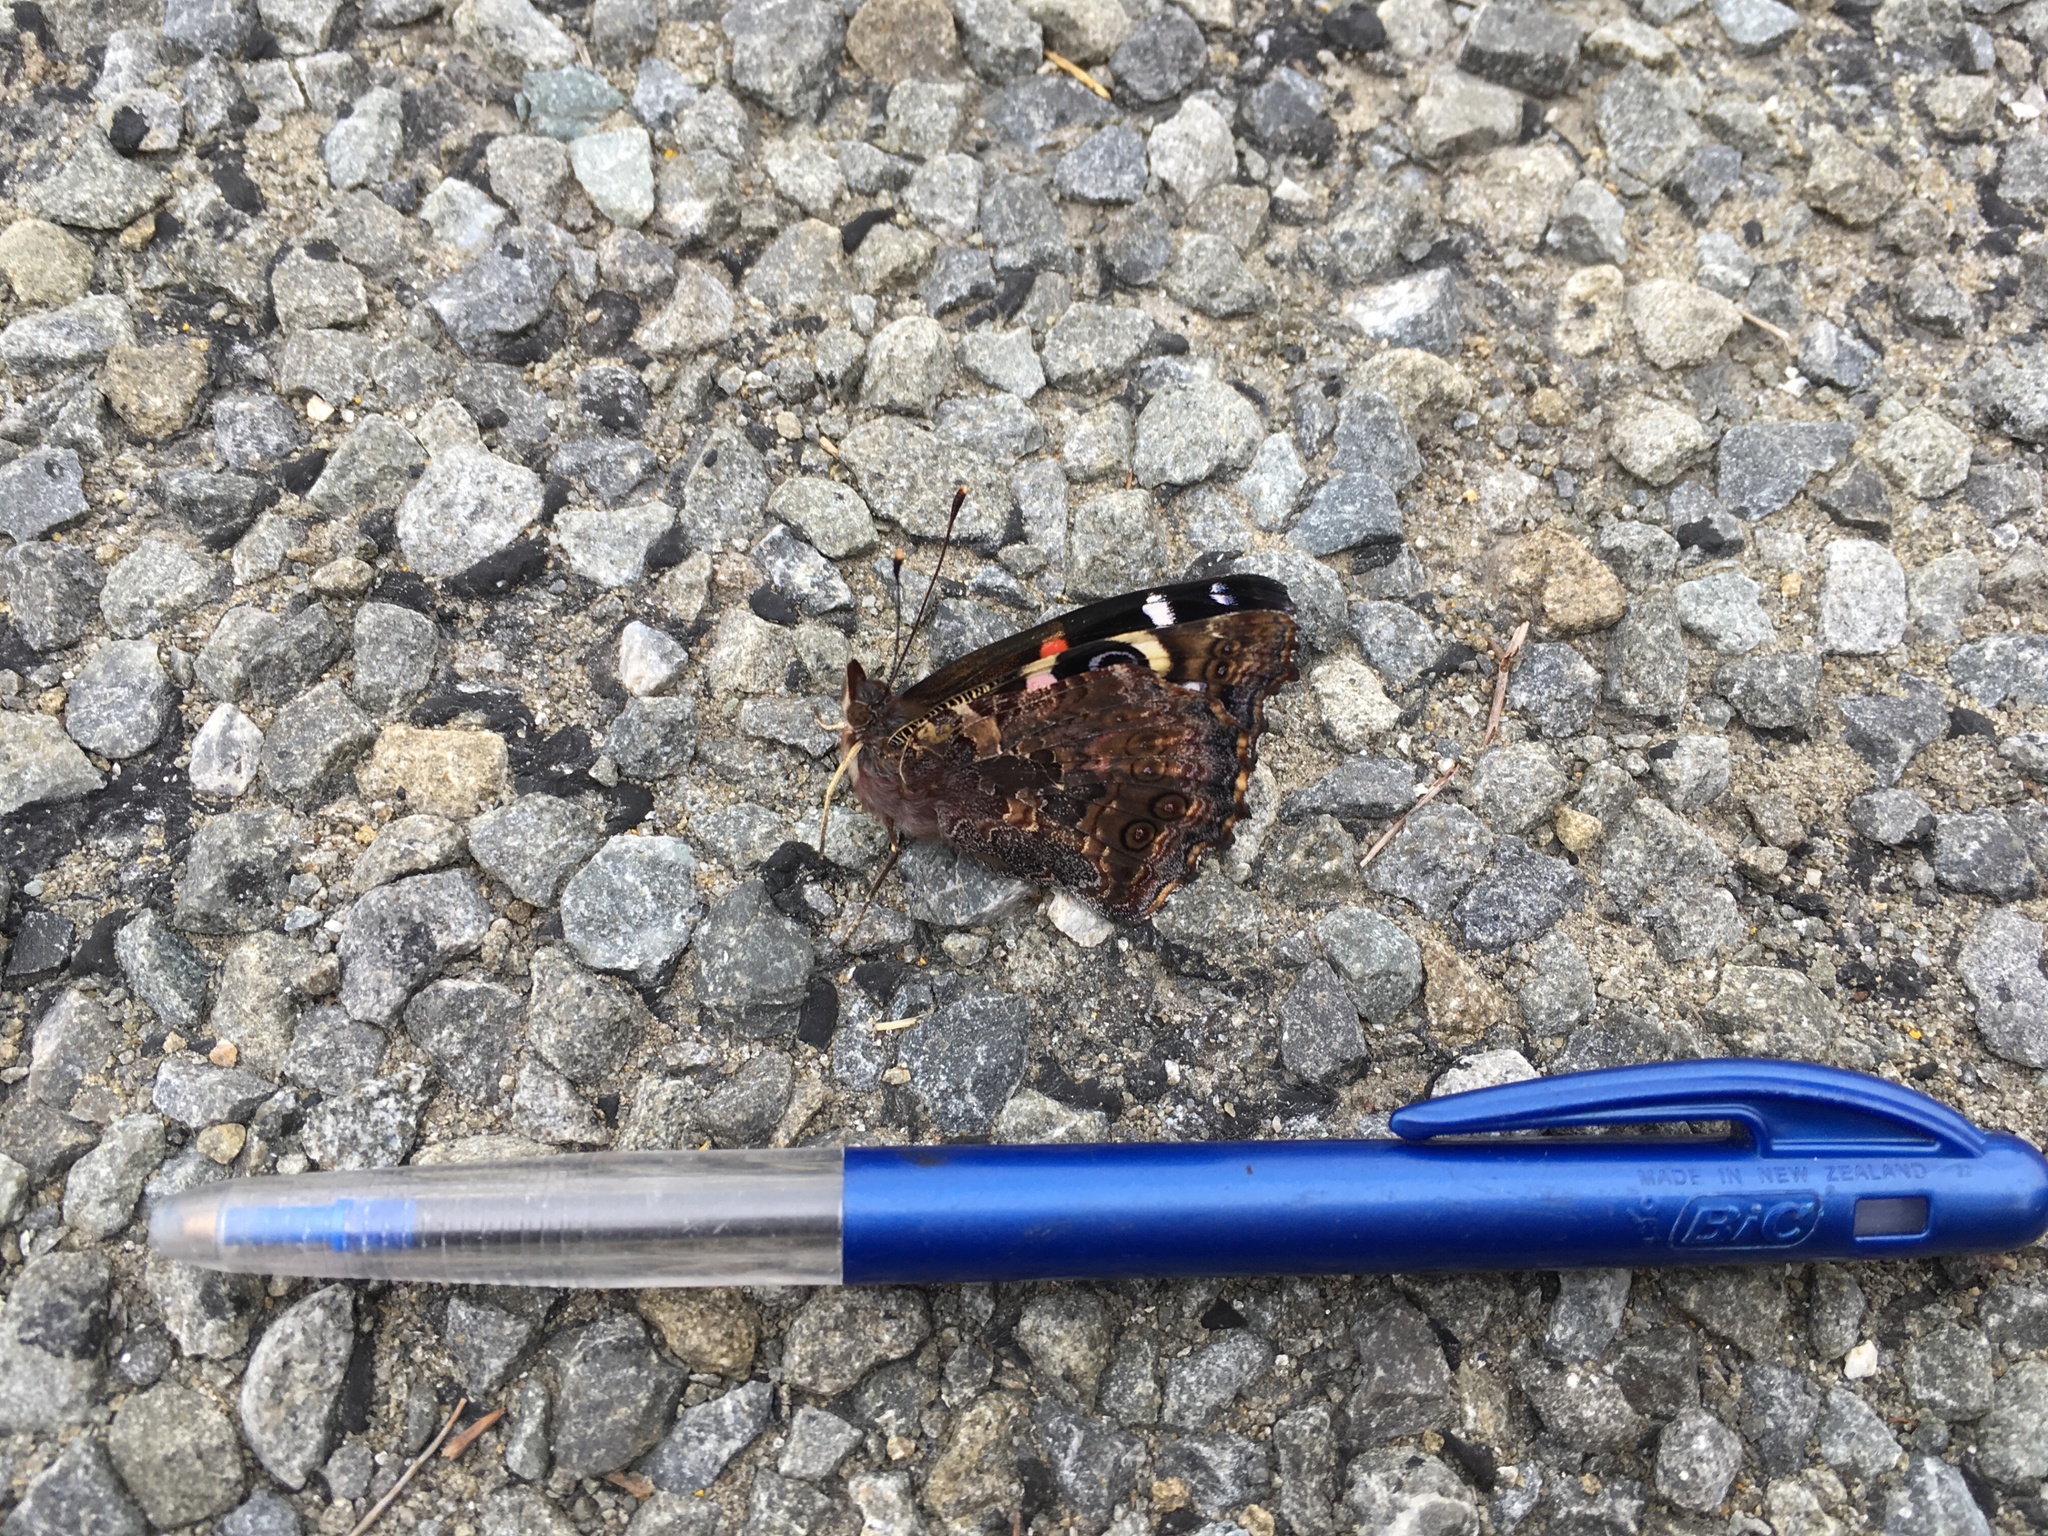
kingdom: Animalia
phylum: Arthropoda
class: Insecta
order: Lepidoptera
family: Nymphalidae
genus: Vanessa
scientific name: Vanessa gonerilla
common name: New zealand red admiral
